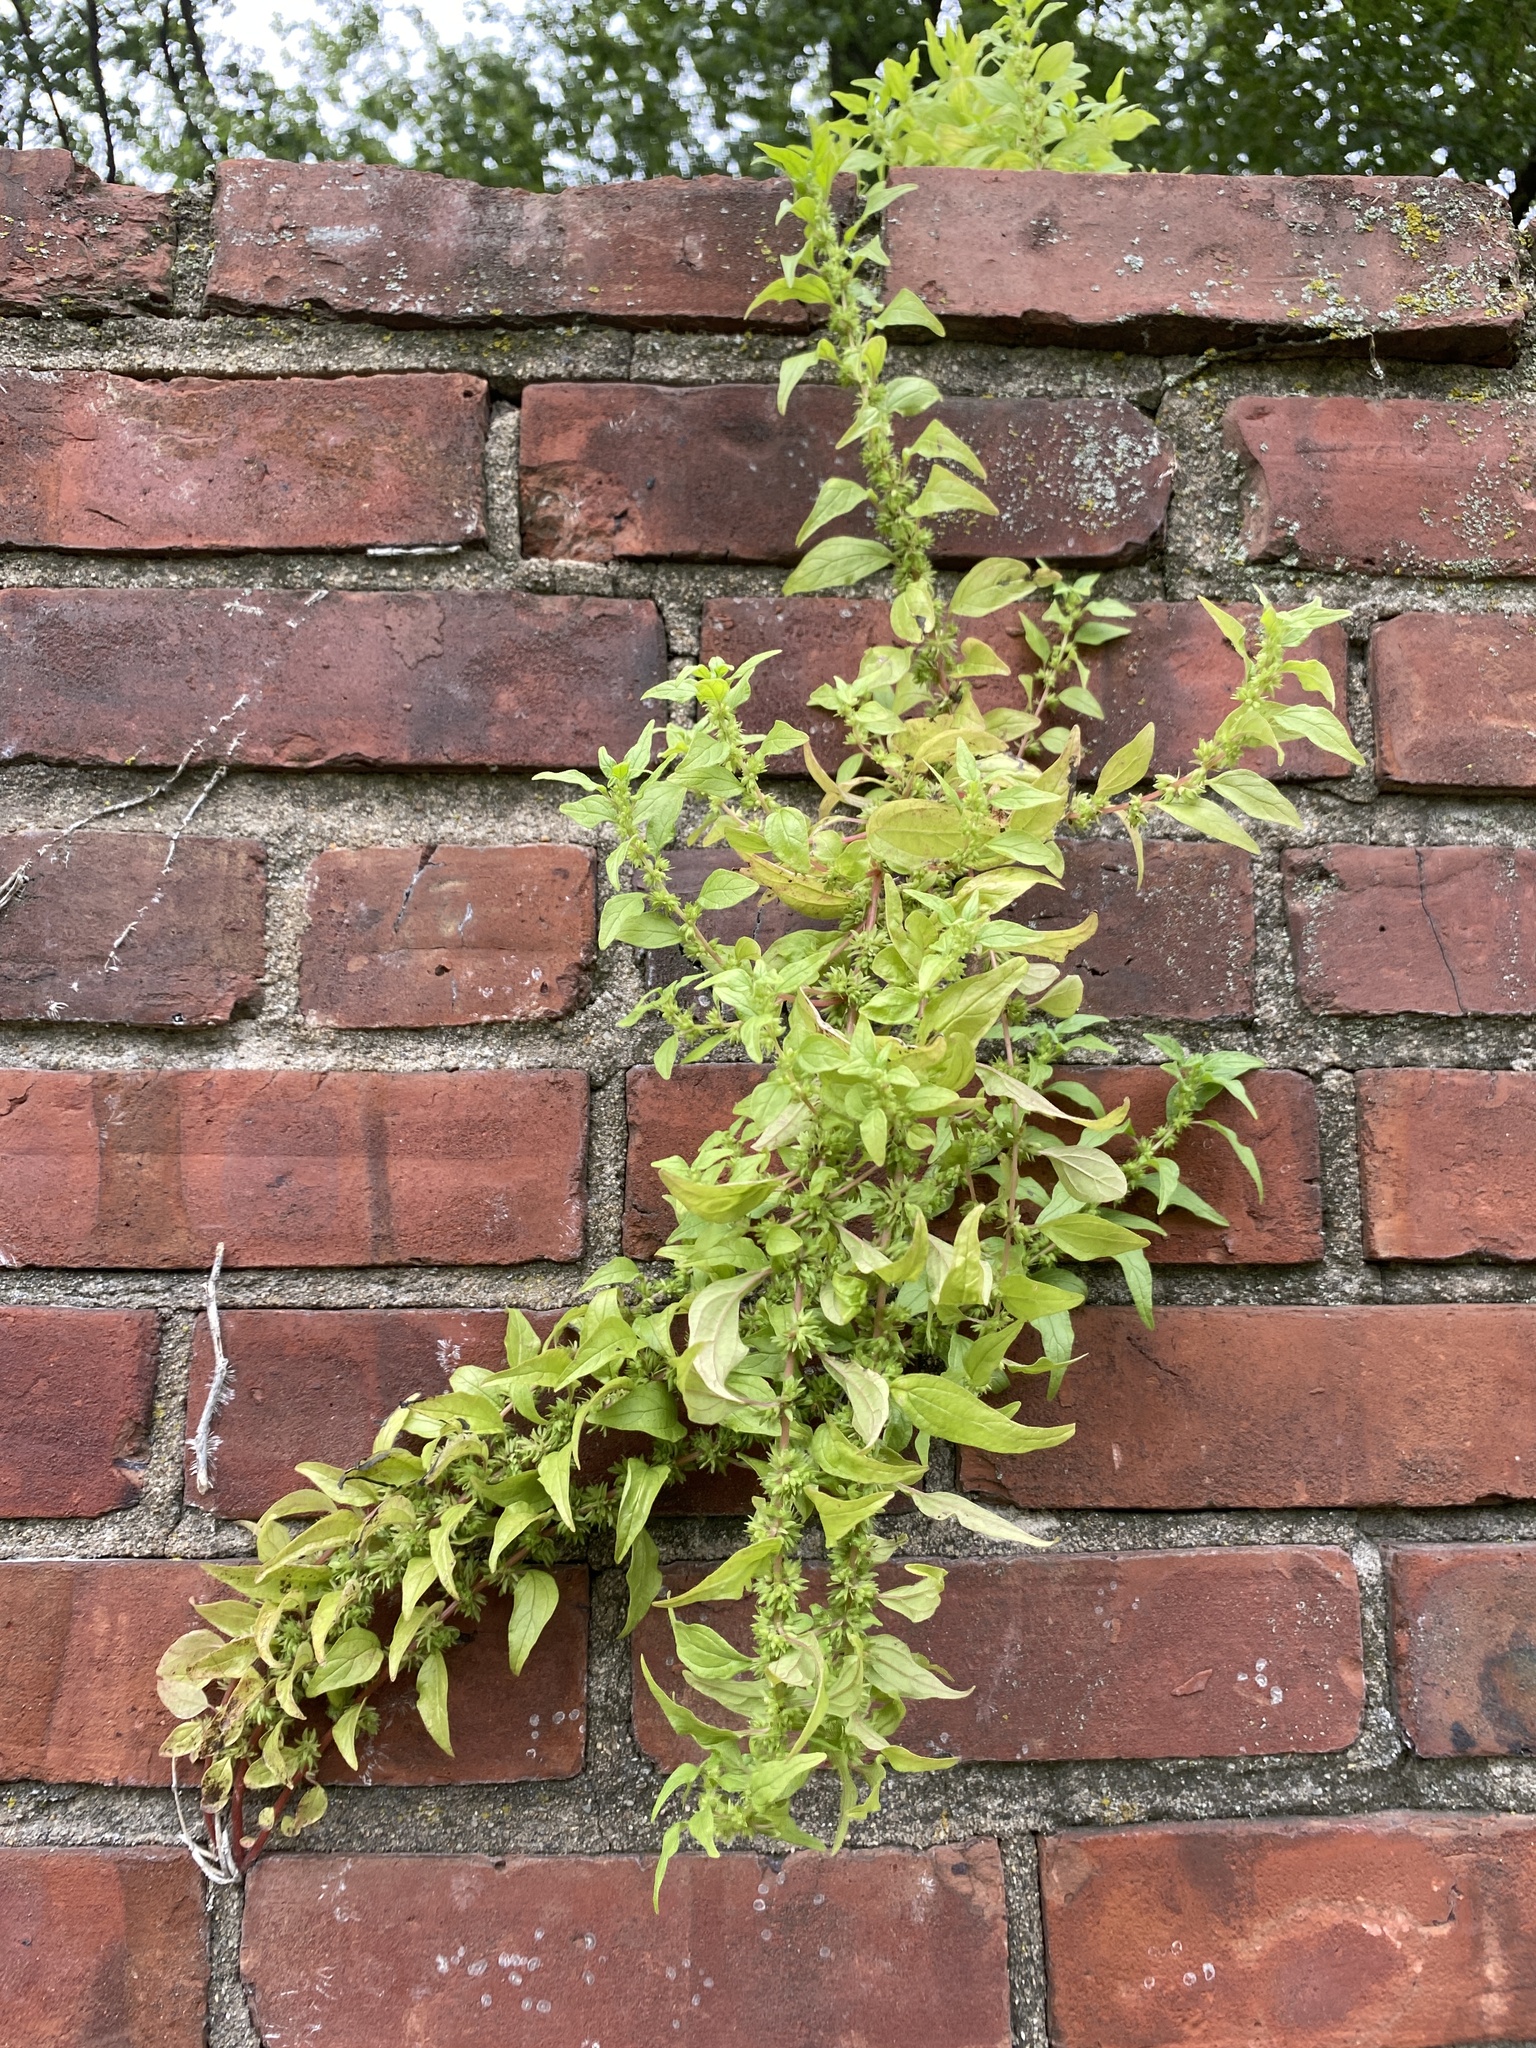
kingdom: Plantae
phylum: Tracheophyta
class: Magnoliopsida
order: Rosales
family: Urticaceae
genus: Parietaria
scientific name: Parietaria pensylvanica
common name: Pennsylvania pellitory
